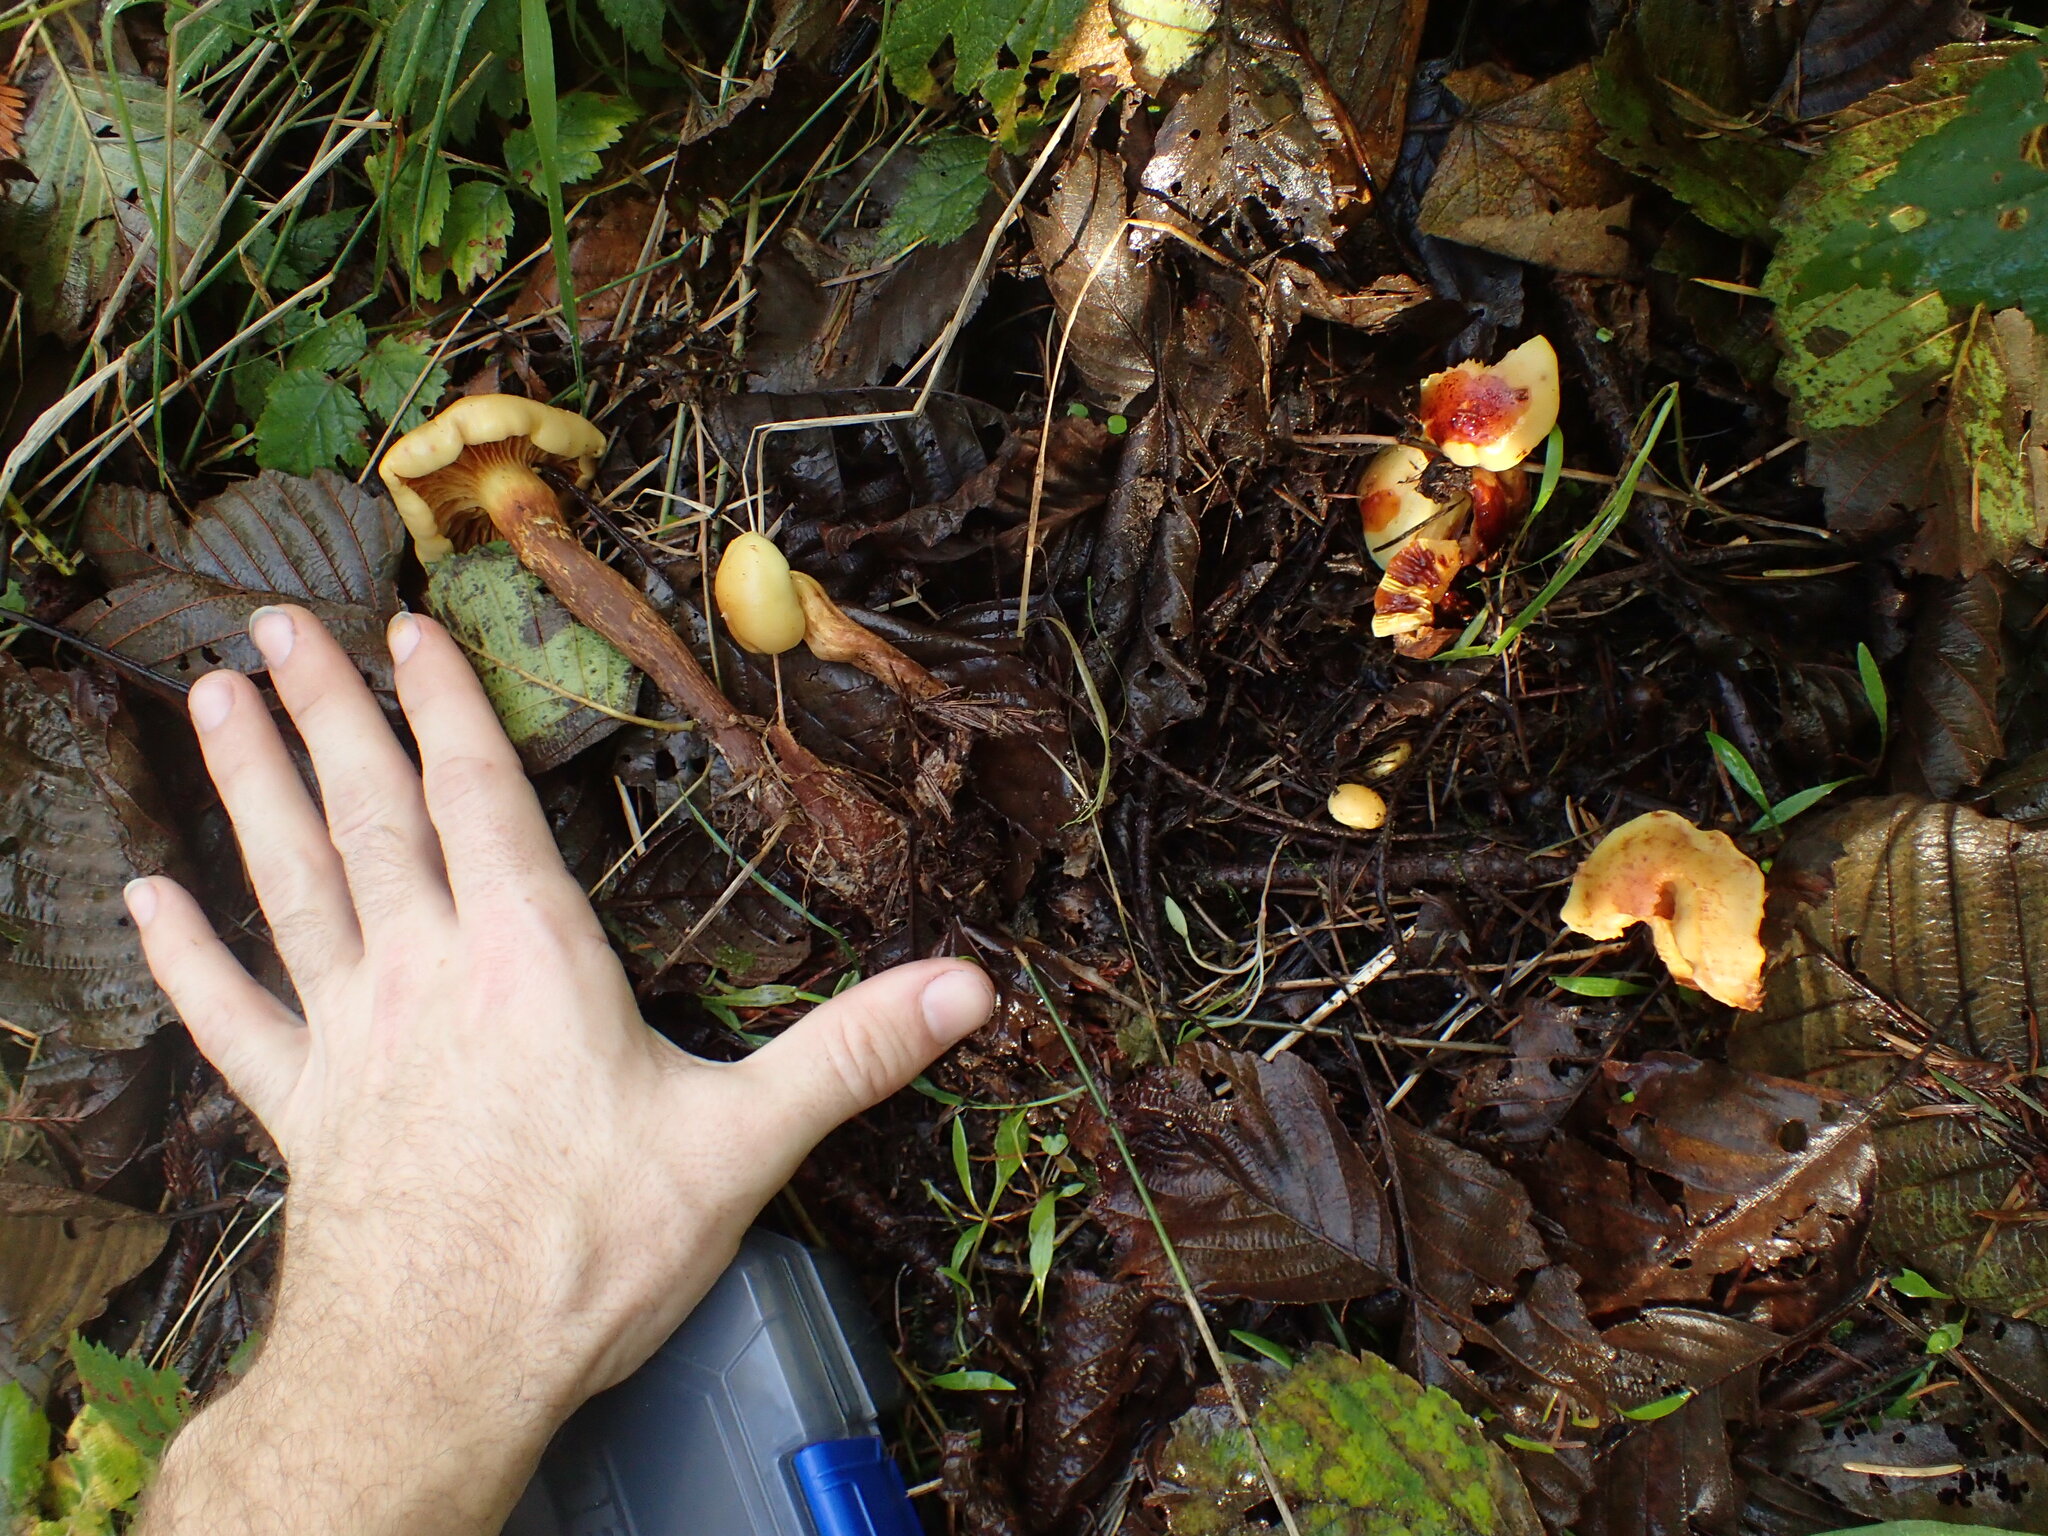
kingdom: Fungi
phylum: Basidiomycota
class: Agaricomycetes
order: Agaricales
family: Hymenogastraceae
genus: Flammula
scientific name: Flammula alnicola
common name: Alder scalycap
